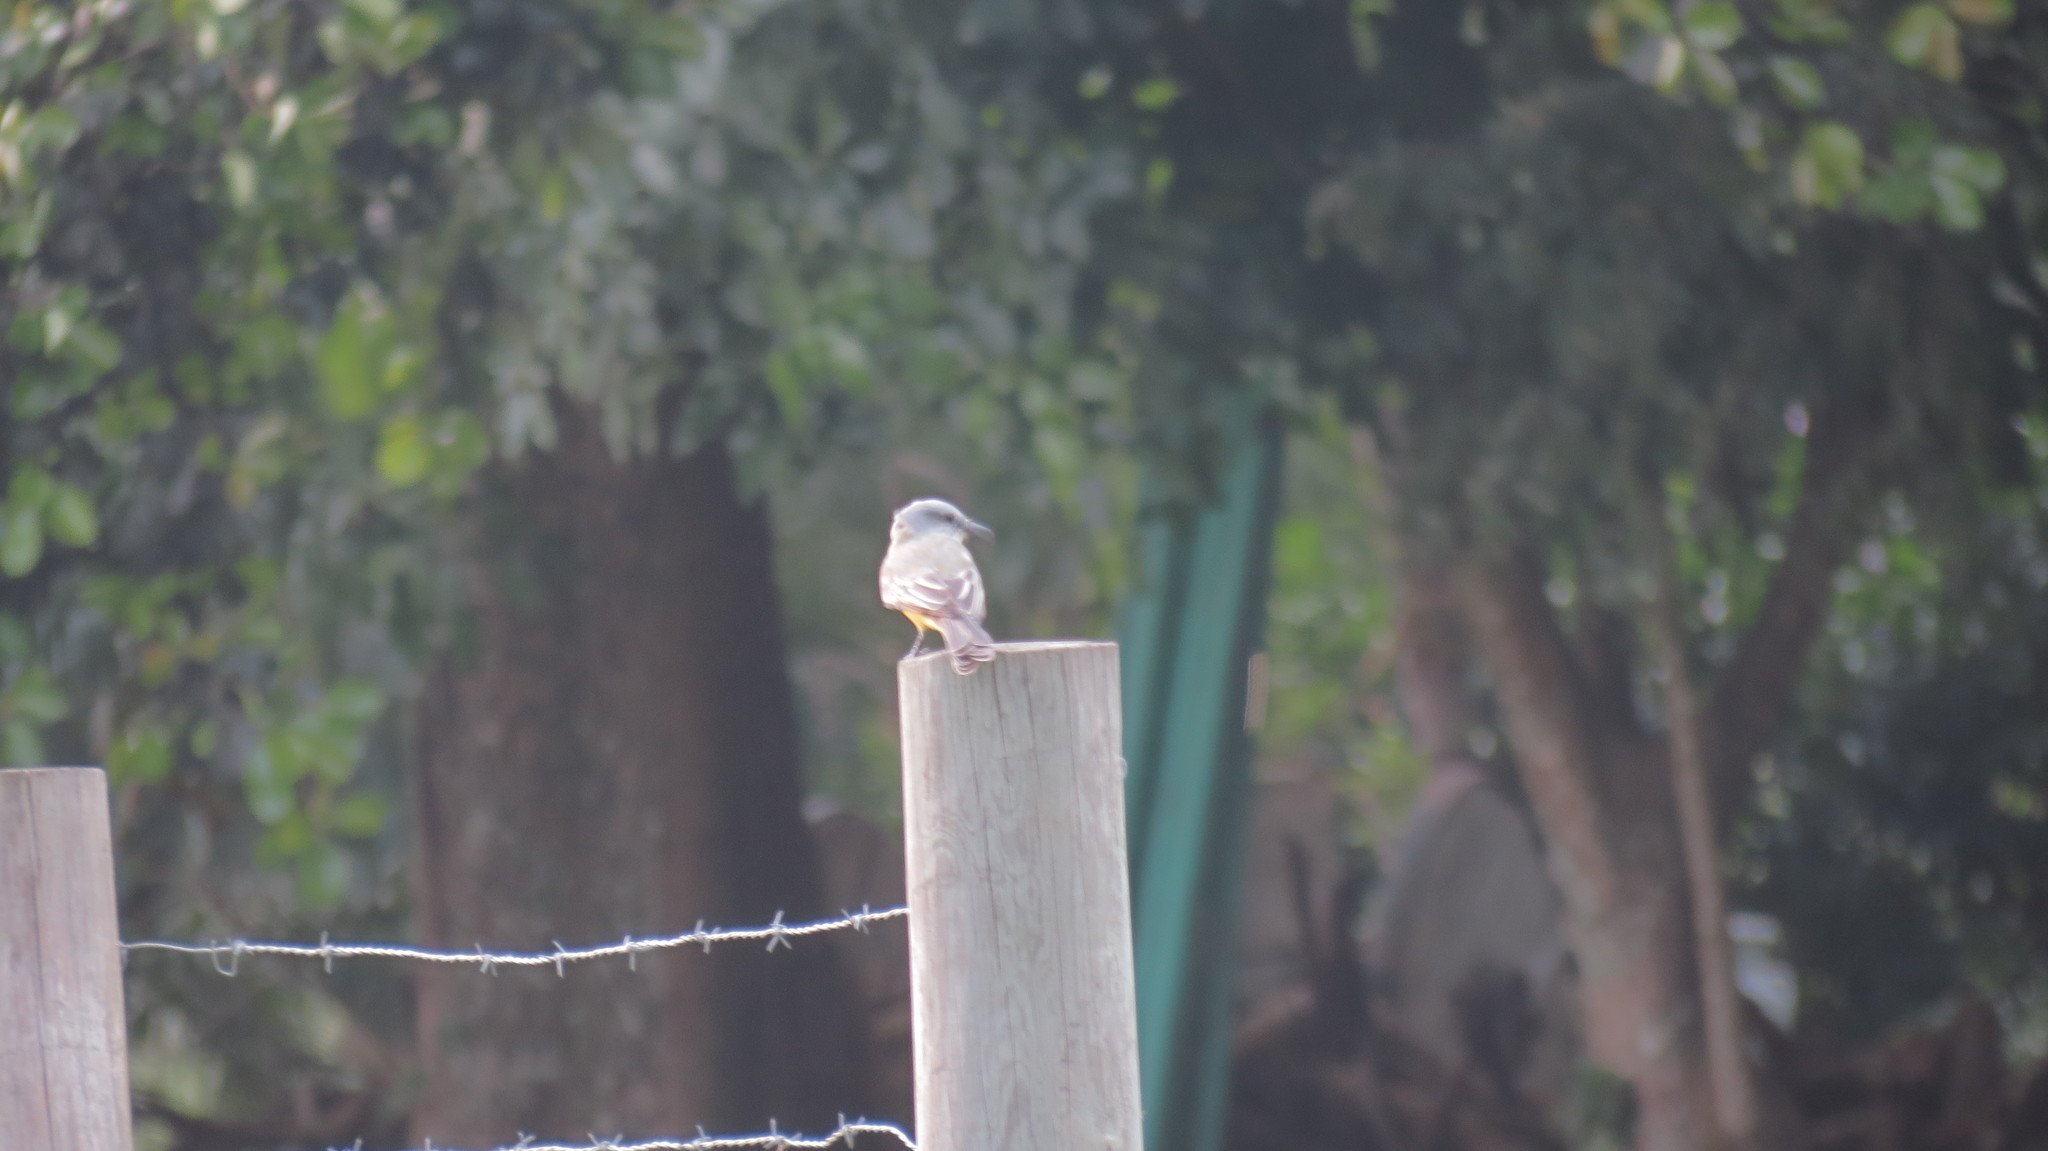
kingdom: Animalia
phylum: Chordata
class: Aves
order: Passeriformes
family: Tyrannidae
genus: Tyrannus
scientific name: Tyrannus melancholicus
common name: Tropical kingbird
